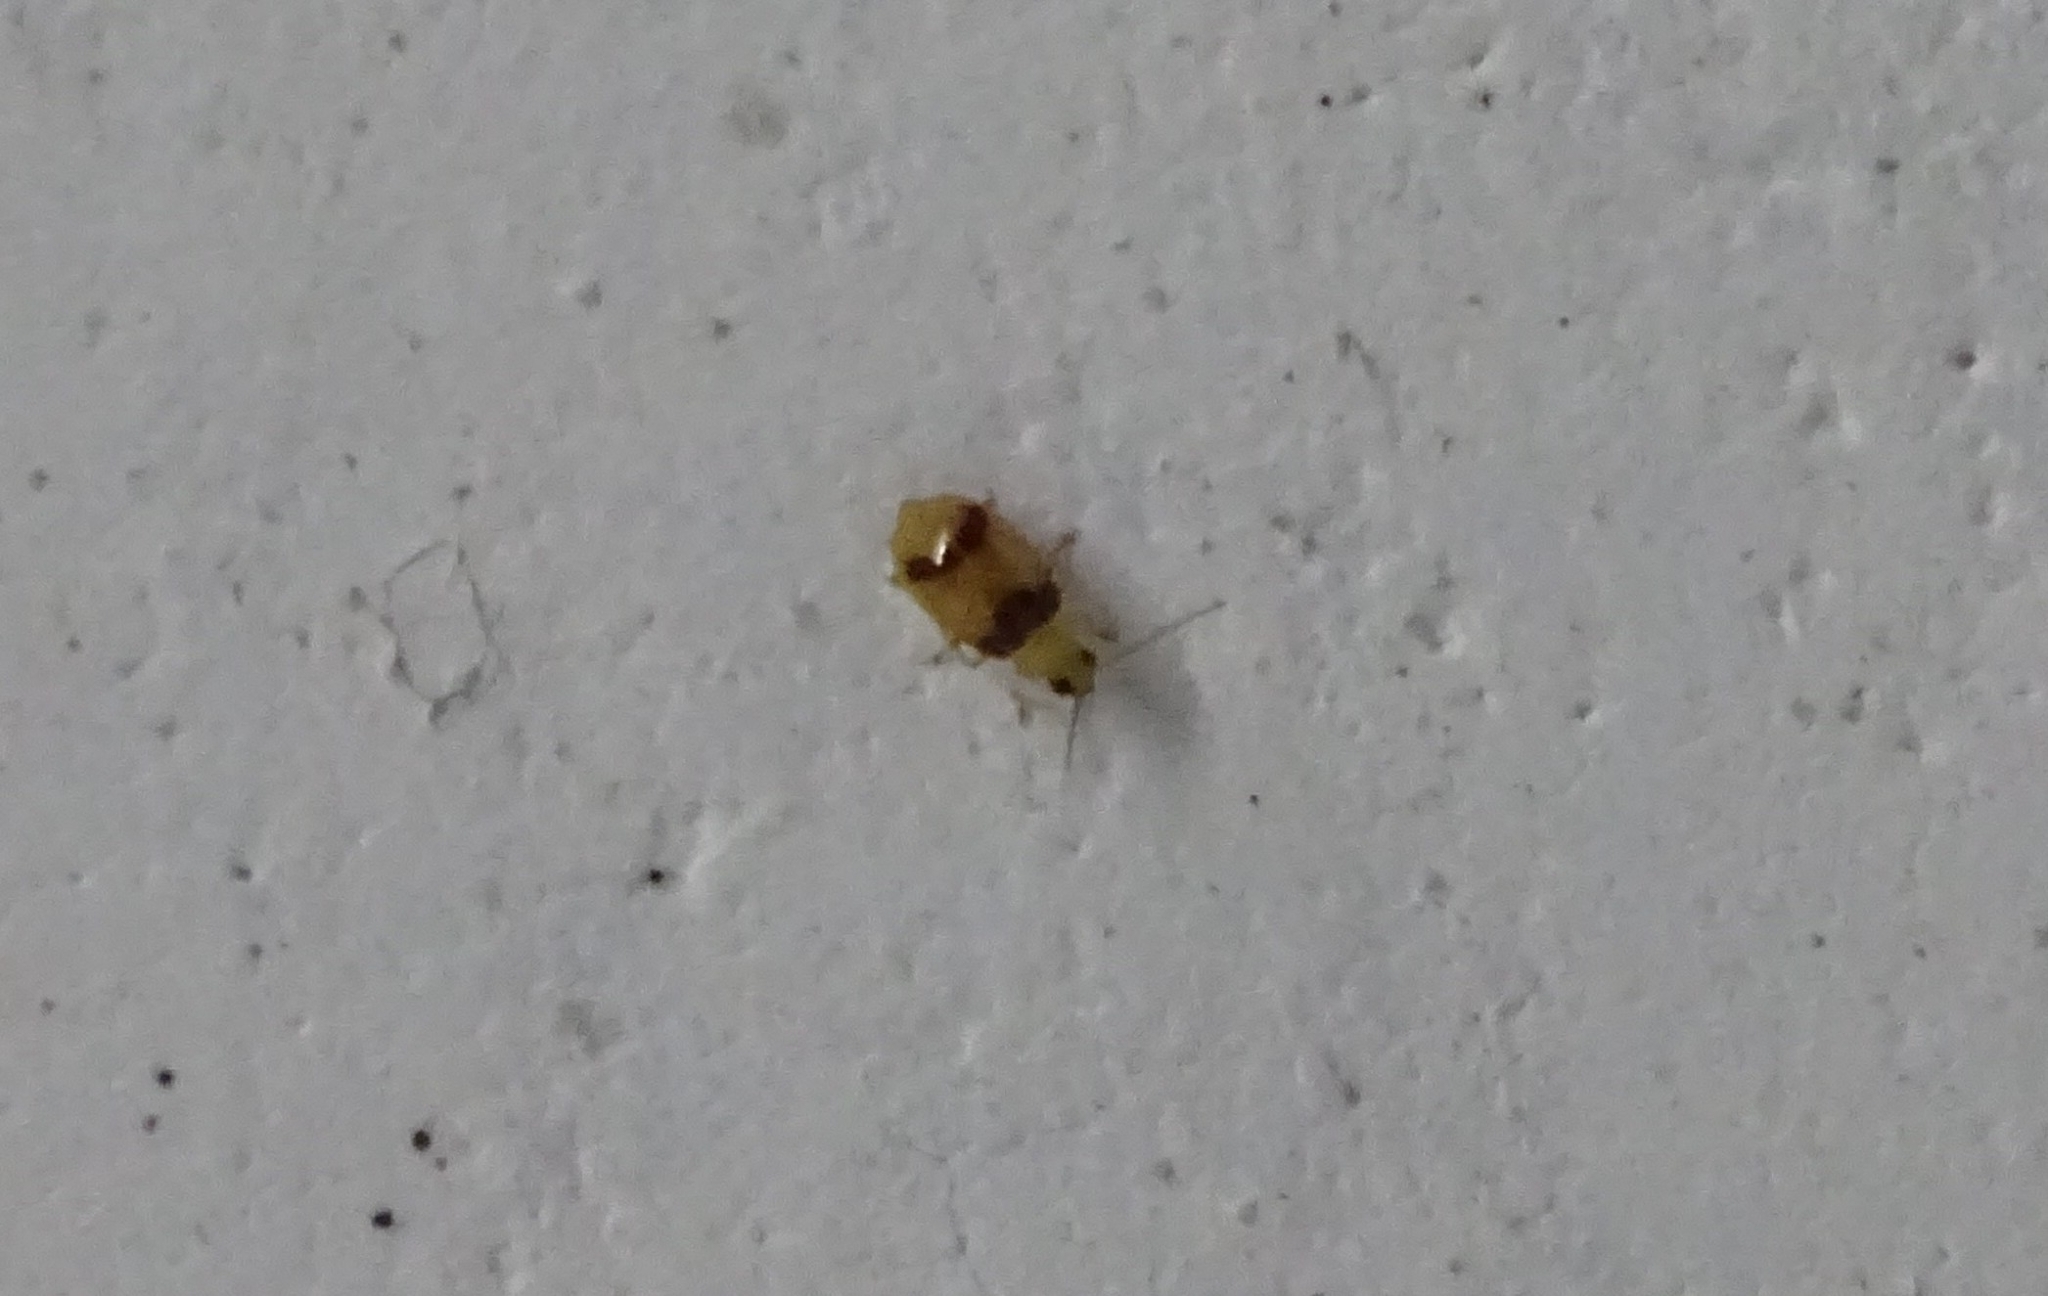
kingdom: Animalia
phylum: Arthropoda
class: Insecta
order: Coleoptera
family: Chrysomelidae
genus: Monolepta
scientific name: Monolepta
